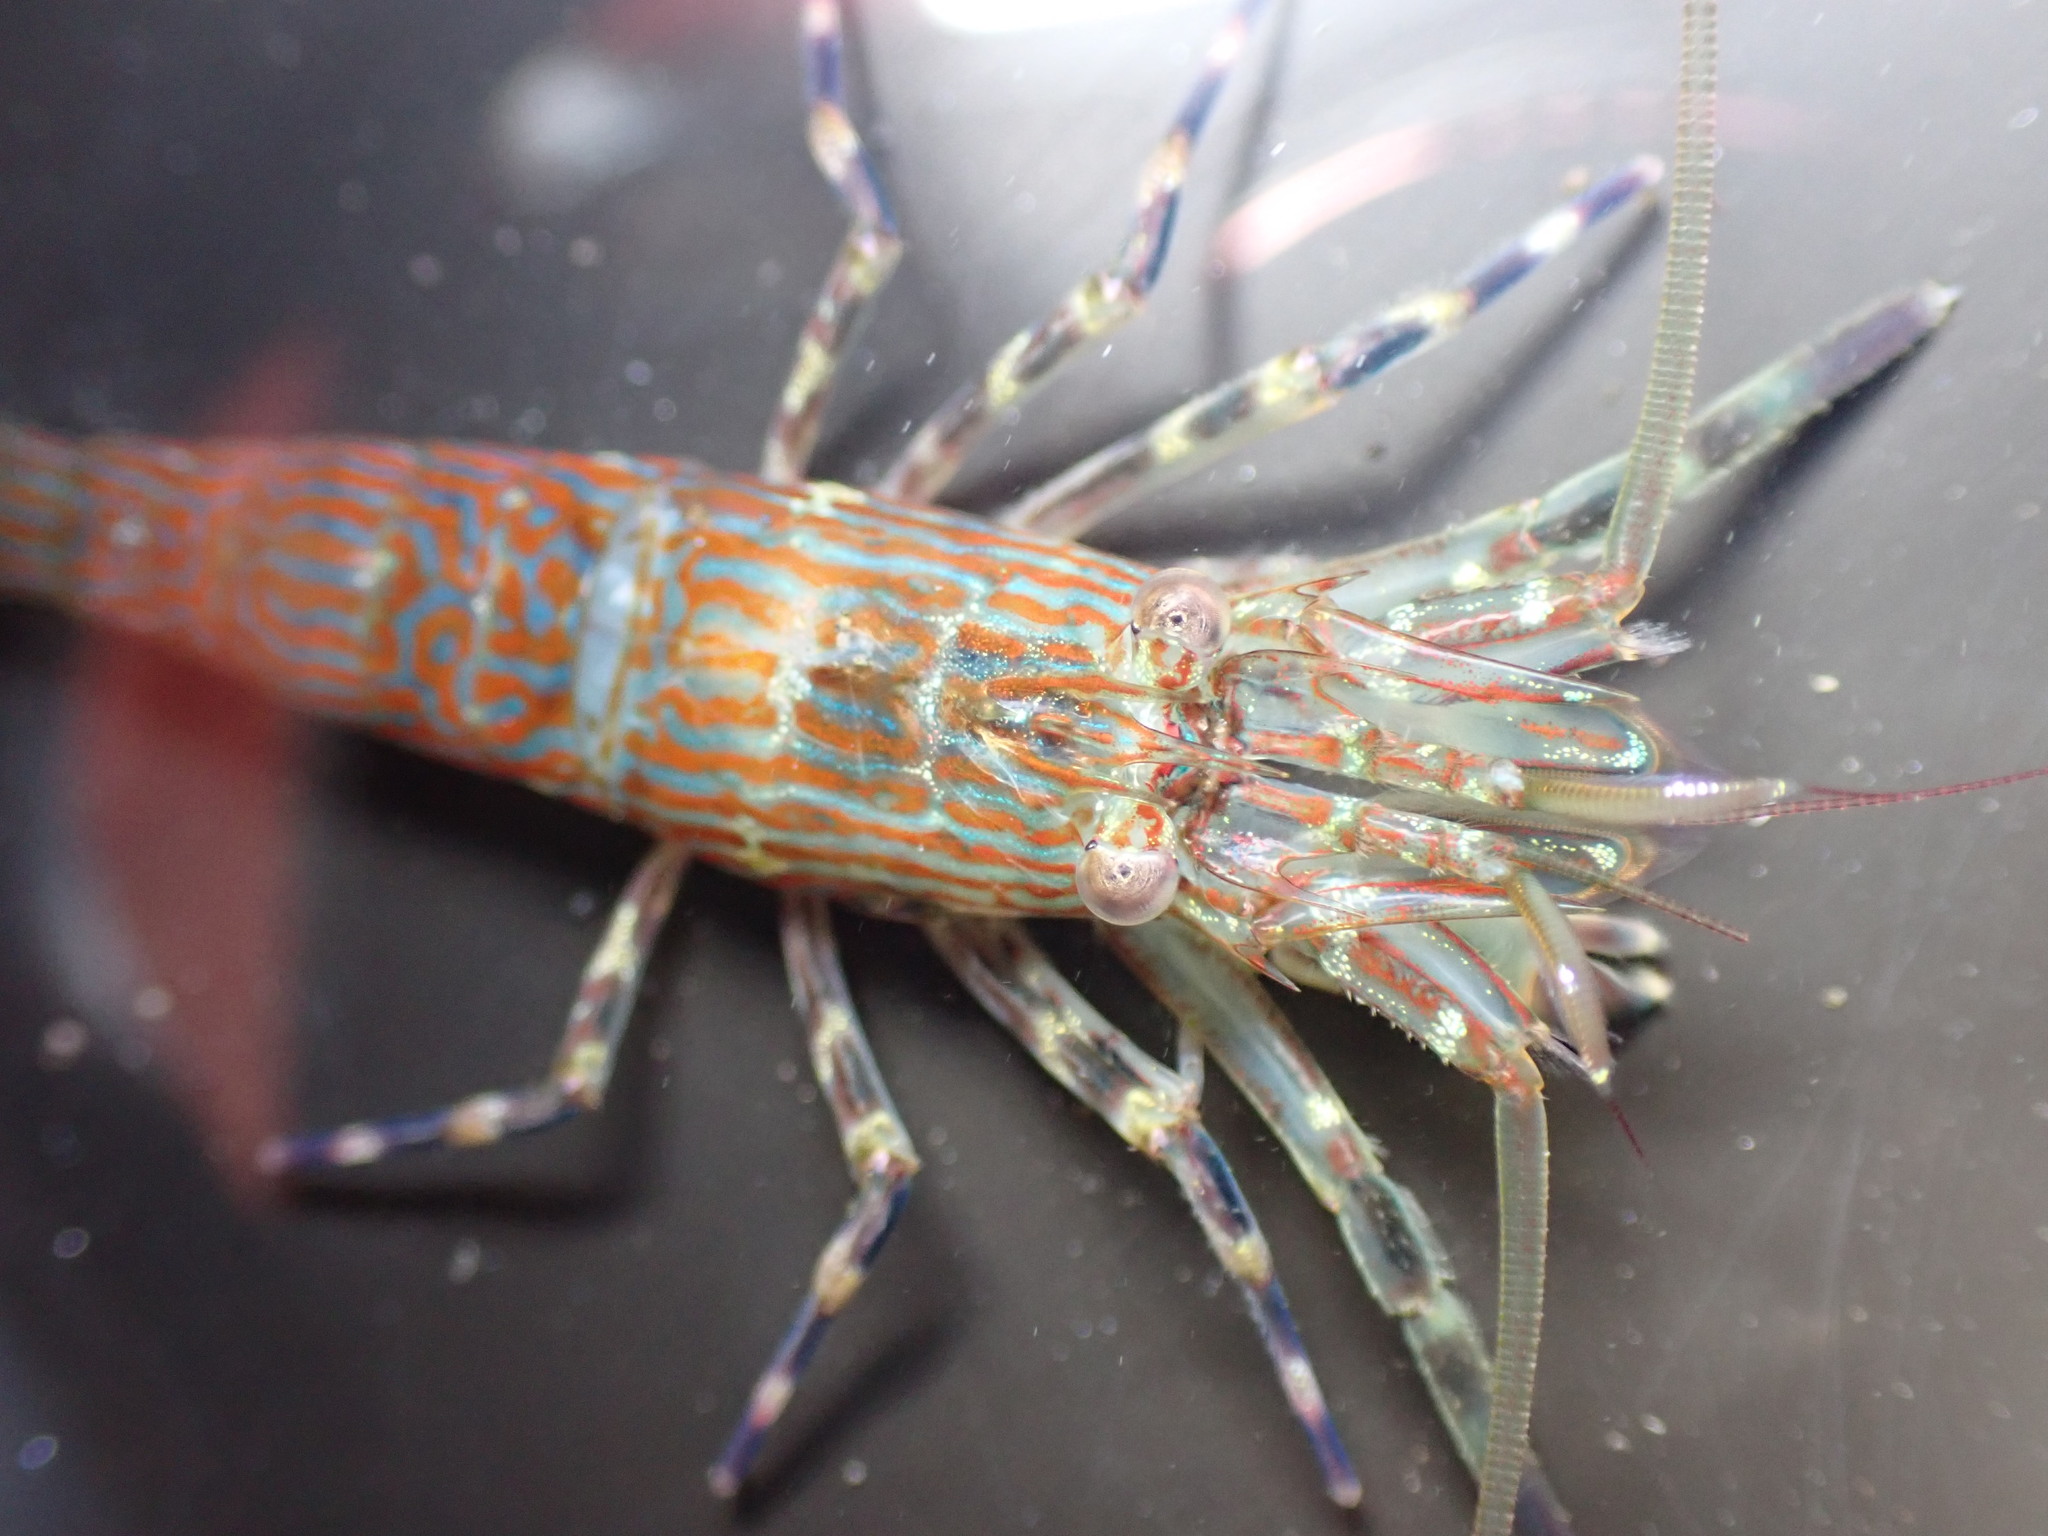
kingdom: Animalia
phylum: Arthropoda
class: Malacostraca
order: Decapoda
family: Hippolytidae
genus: Alope
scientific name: Alope spinifrons
